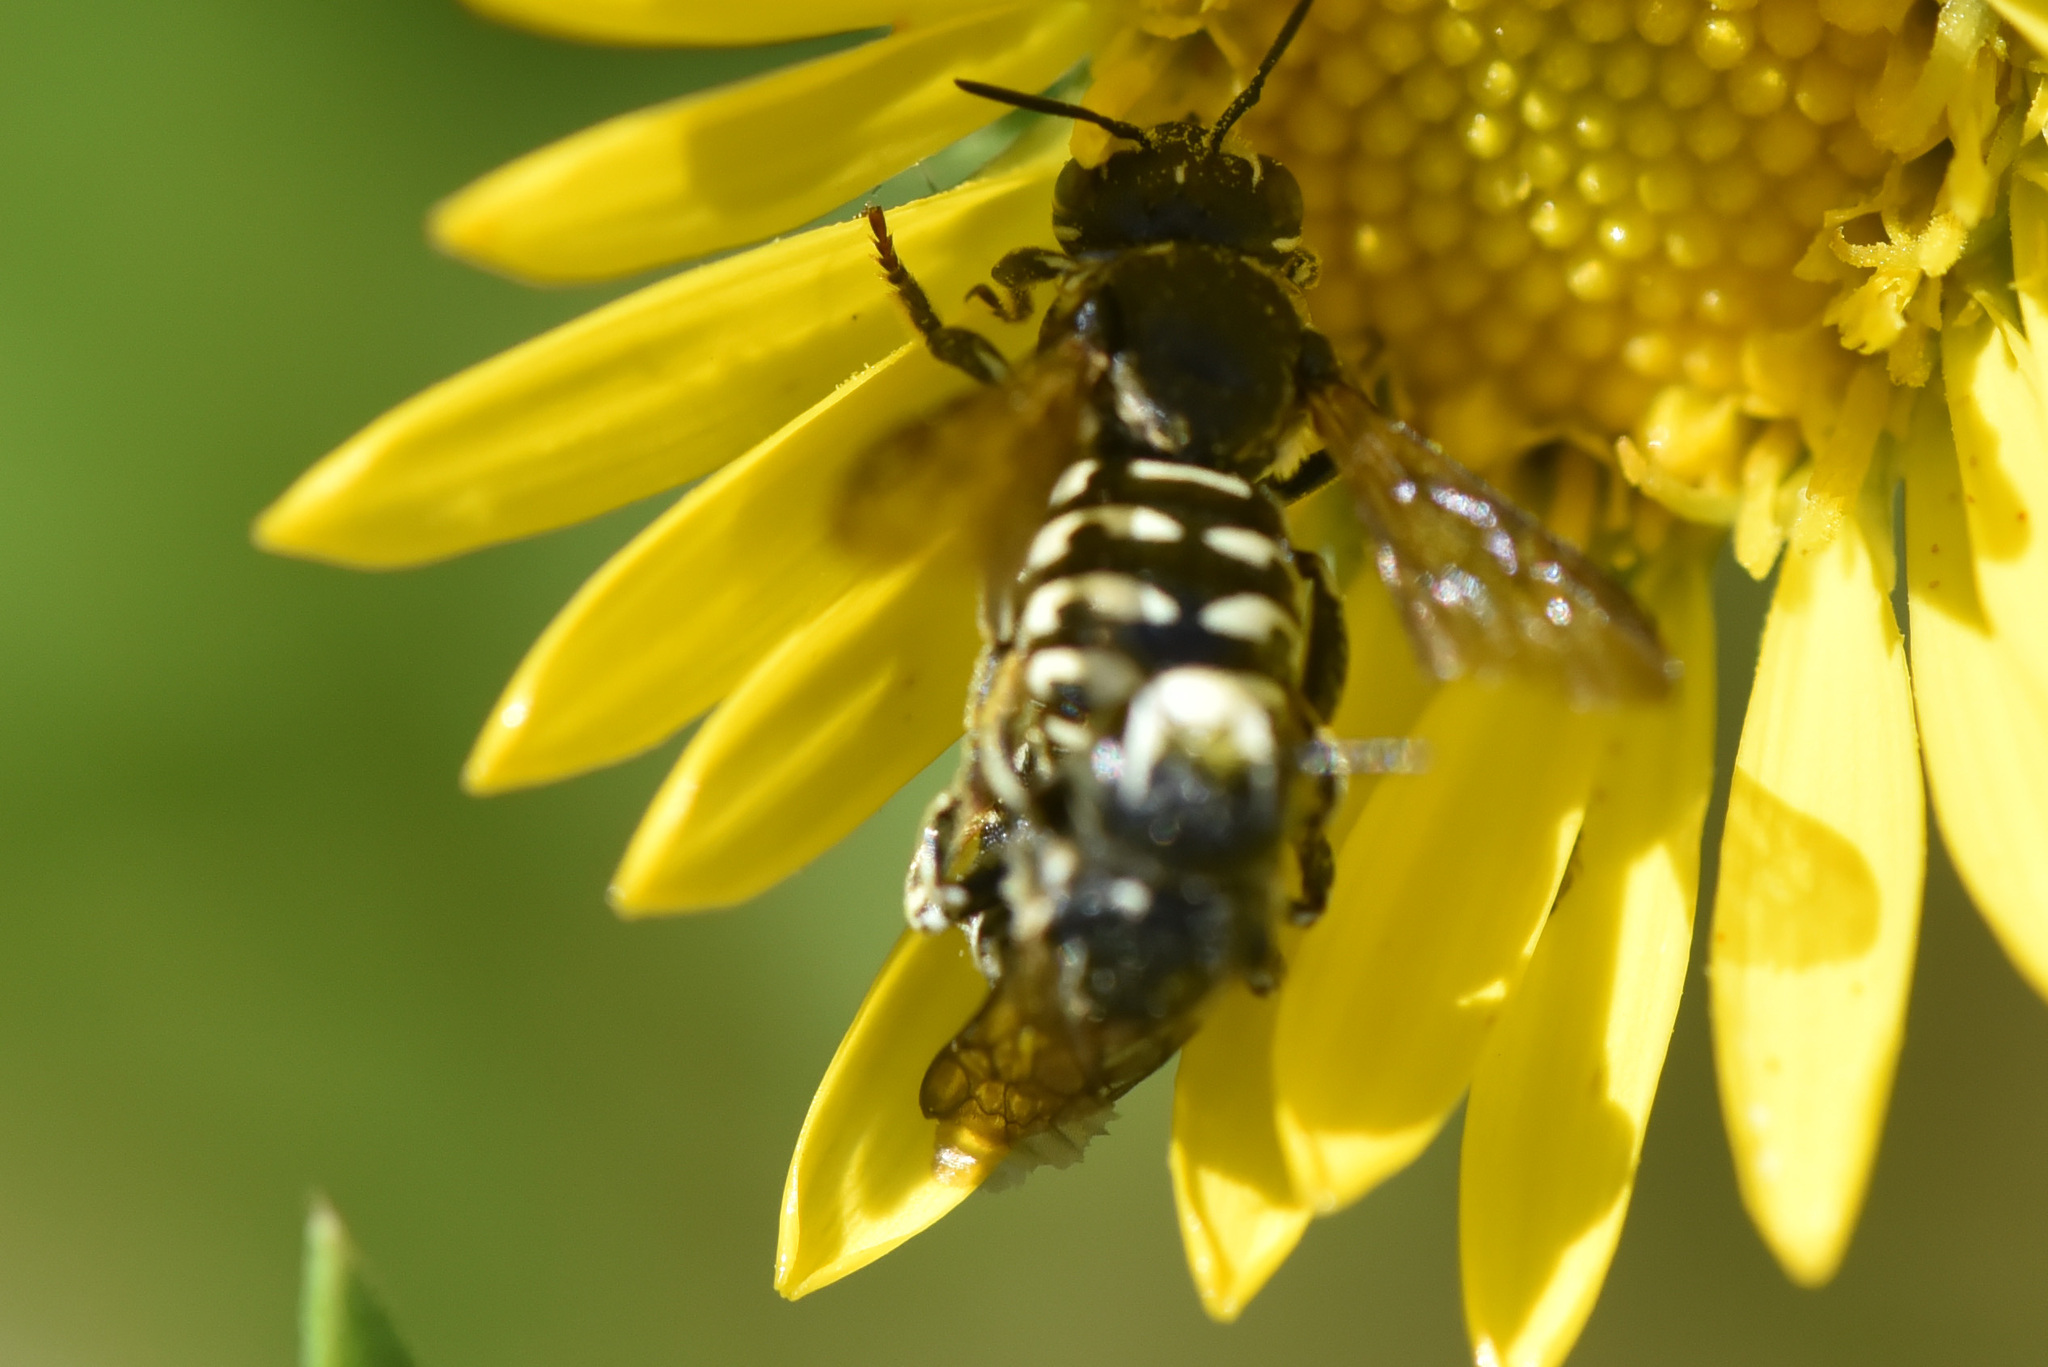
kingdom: Animalia
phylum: Arthropoda
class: Insecta
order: Hymenoptera
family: Megachilidae
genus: Dianthidium
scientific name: Dianthidium subparvum
